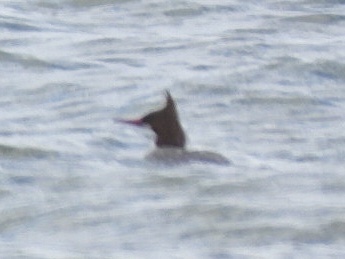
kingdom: Animalia
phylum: Chordata
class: Aves
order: Anseriformes
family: Anatidae
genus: Mergus
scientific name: Mergus merganser
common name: Common merganser
